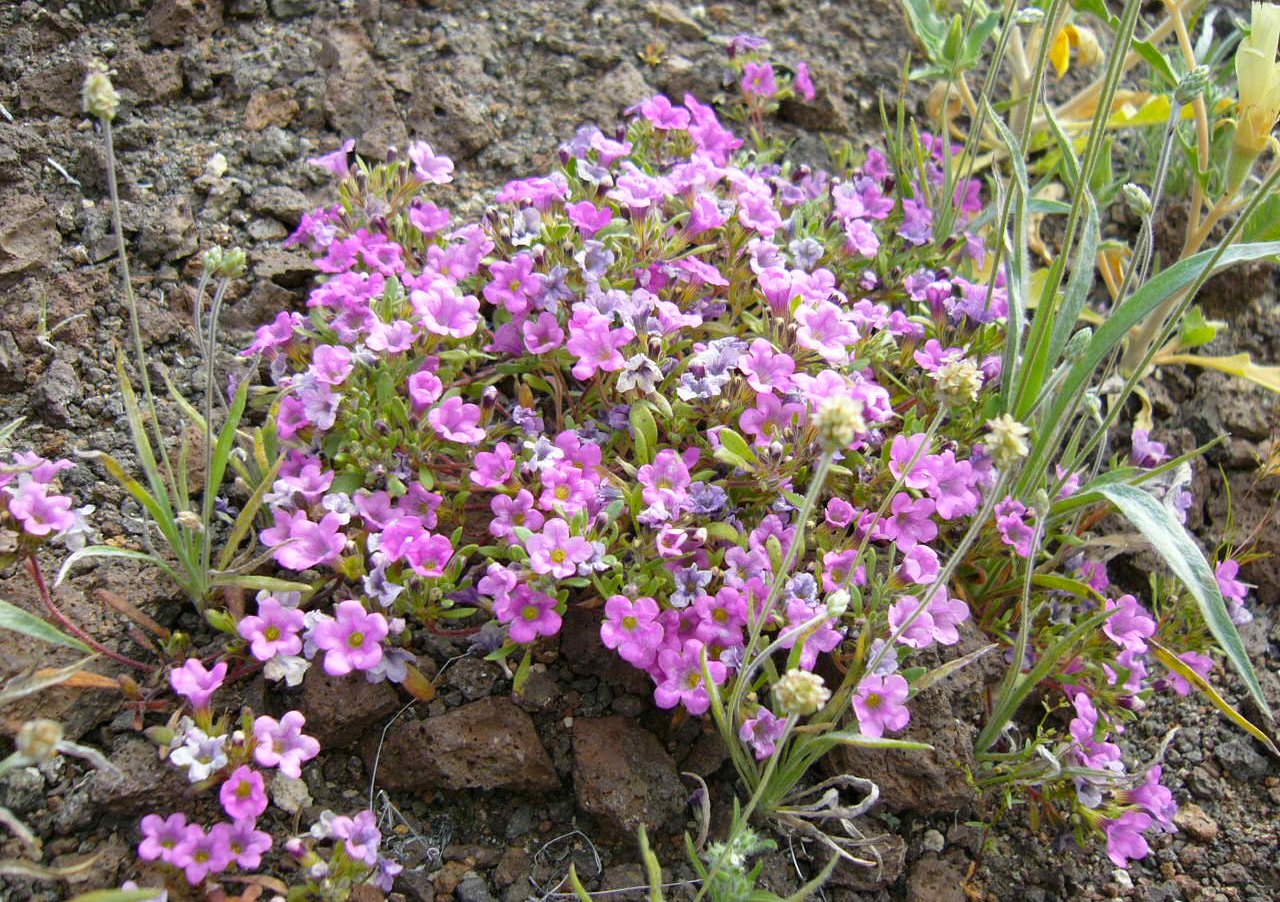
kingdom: Plantae
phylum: Tracheophyta
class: Magnoliopsida
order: Boraginales
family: Namaceae
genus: Nama
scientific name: Nama demissa
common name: Leafy nama
